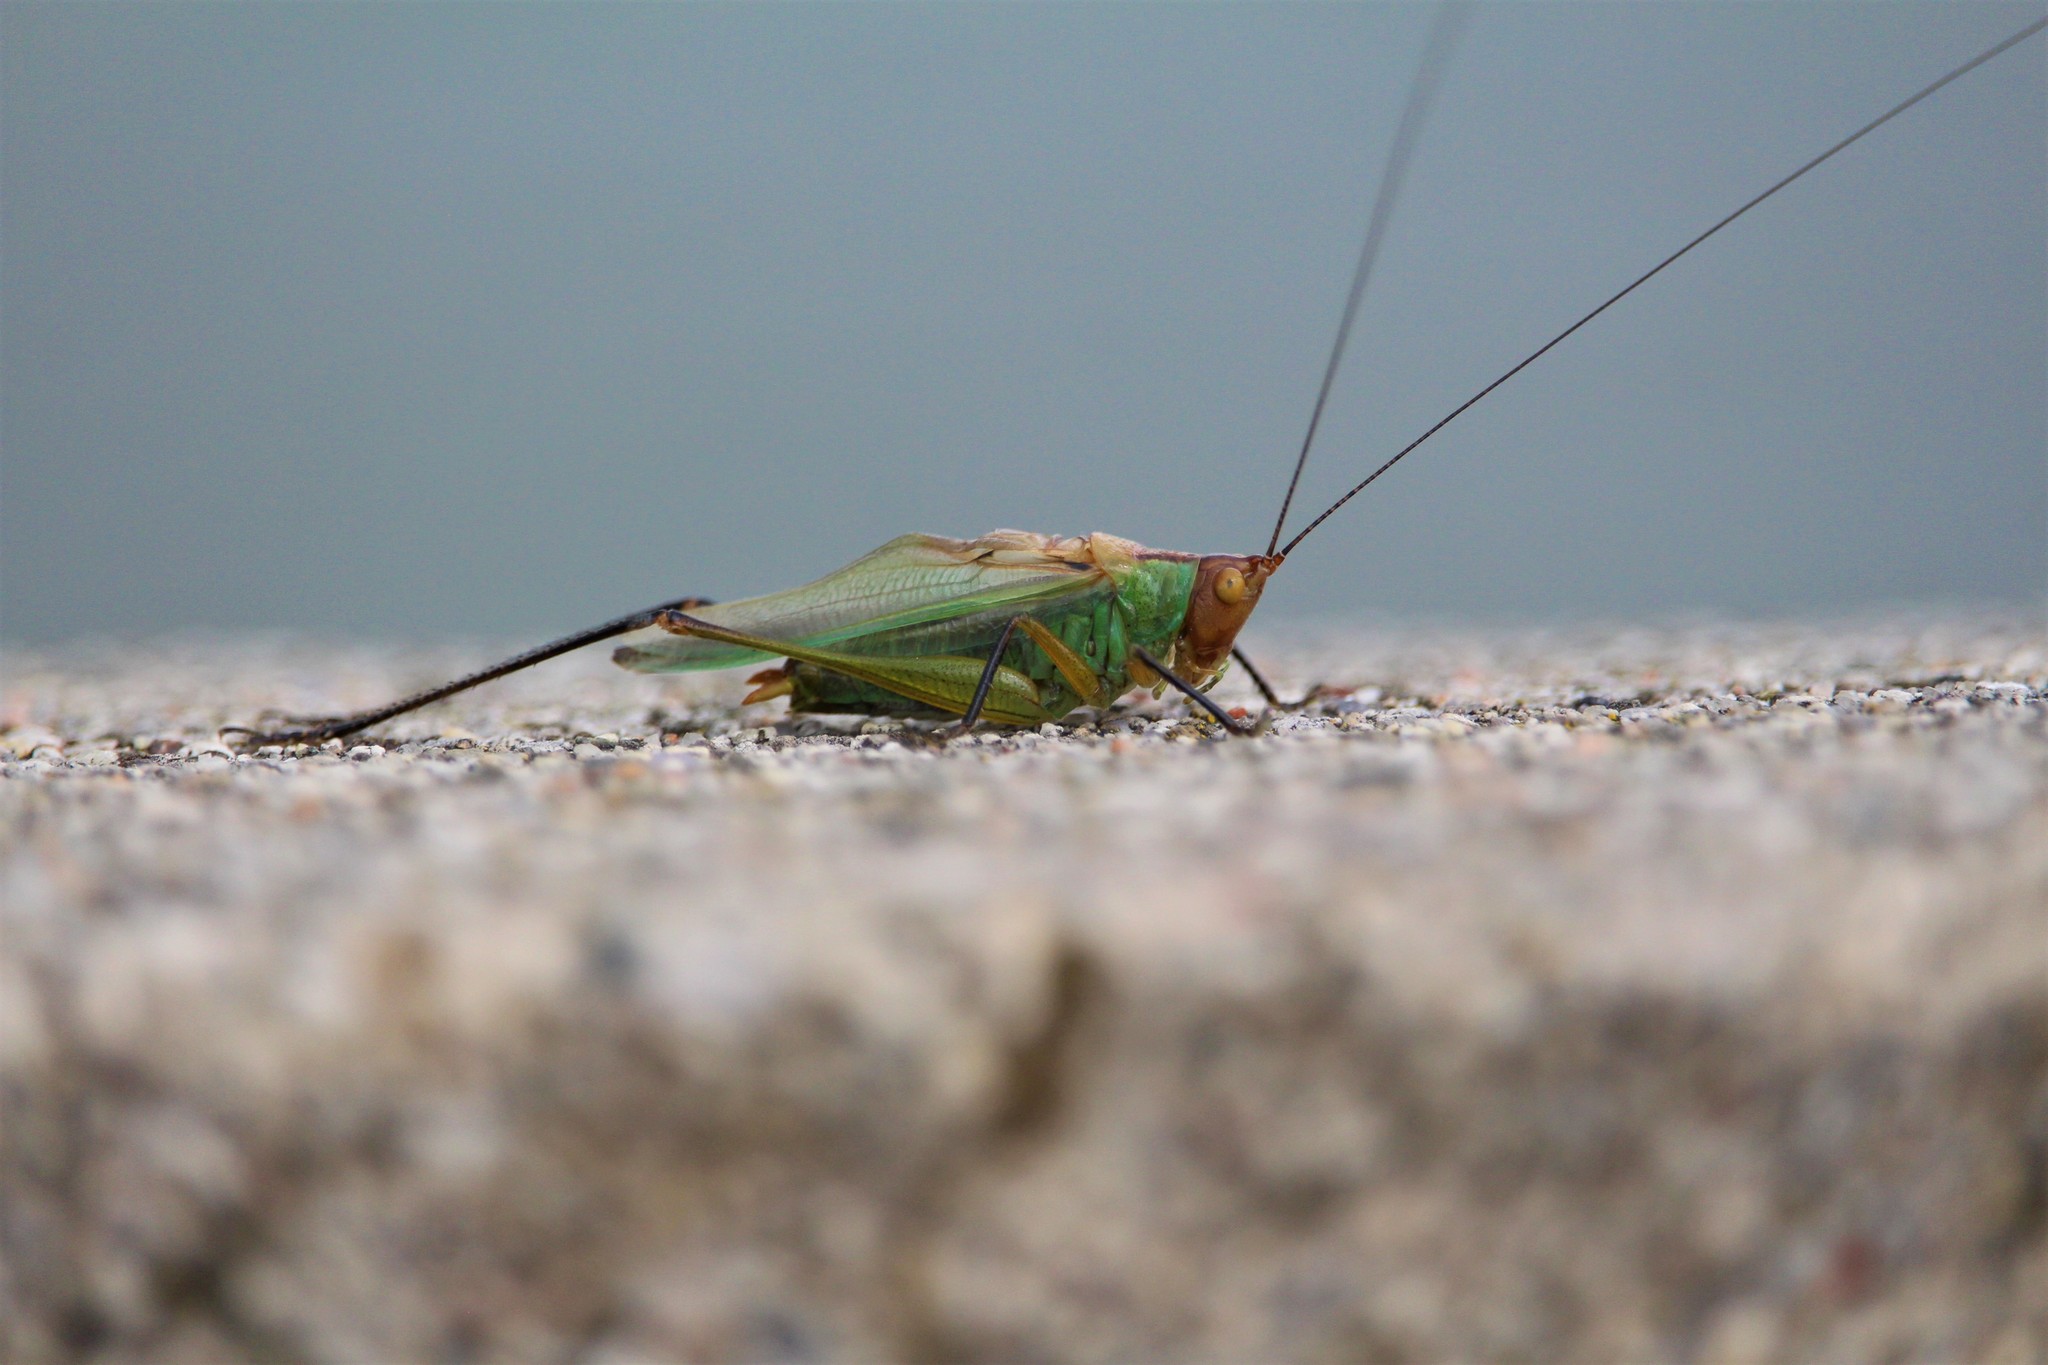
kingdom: Animalia
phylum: Arthropoda
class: Insecta
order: Orthoptera
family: Tettigoniidae
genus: Orchelimum
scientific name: Orchelimum nigripes
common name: Black-legged meadow katydid
